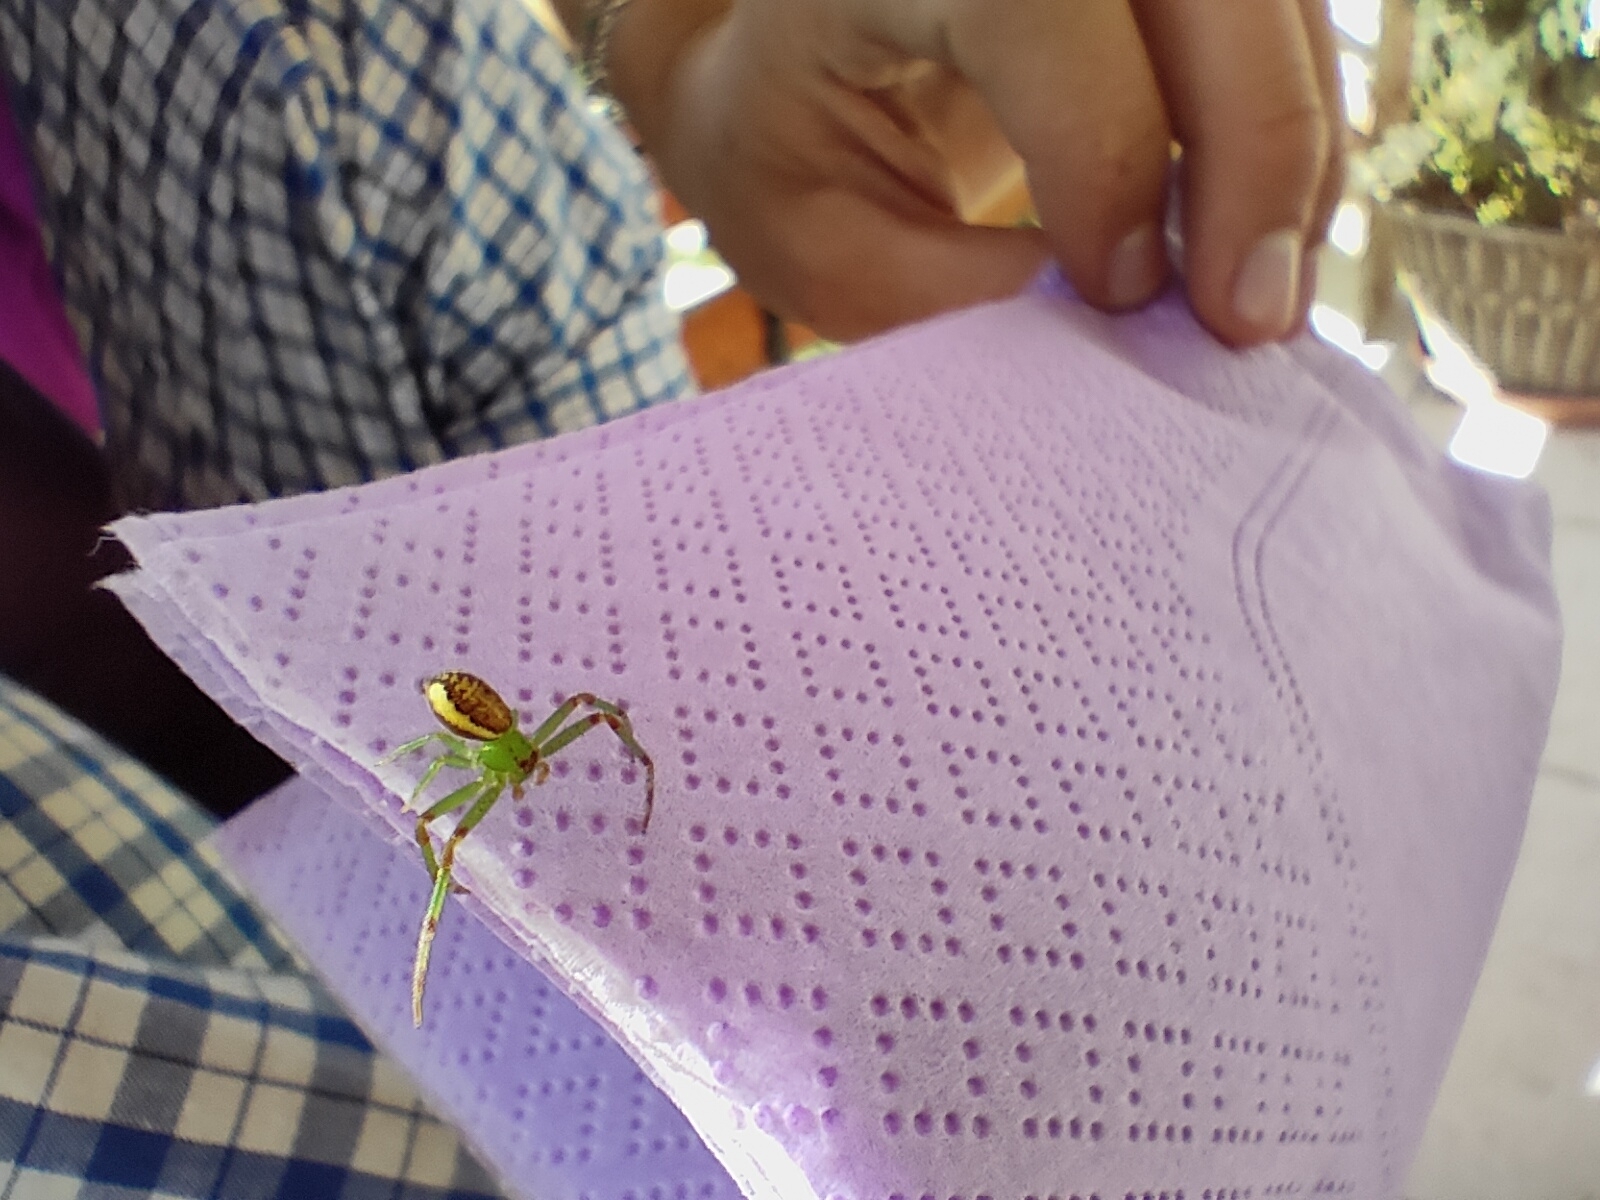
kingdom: Animalia
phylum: Arthropoda
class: Arachnida
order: Araneae
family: Thomisidae
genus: Diaea
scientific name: Diaea dorsata
